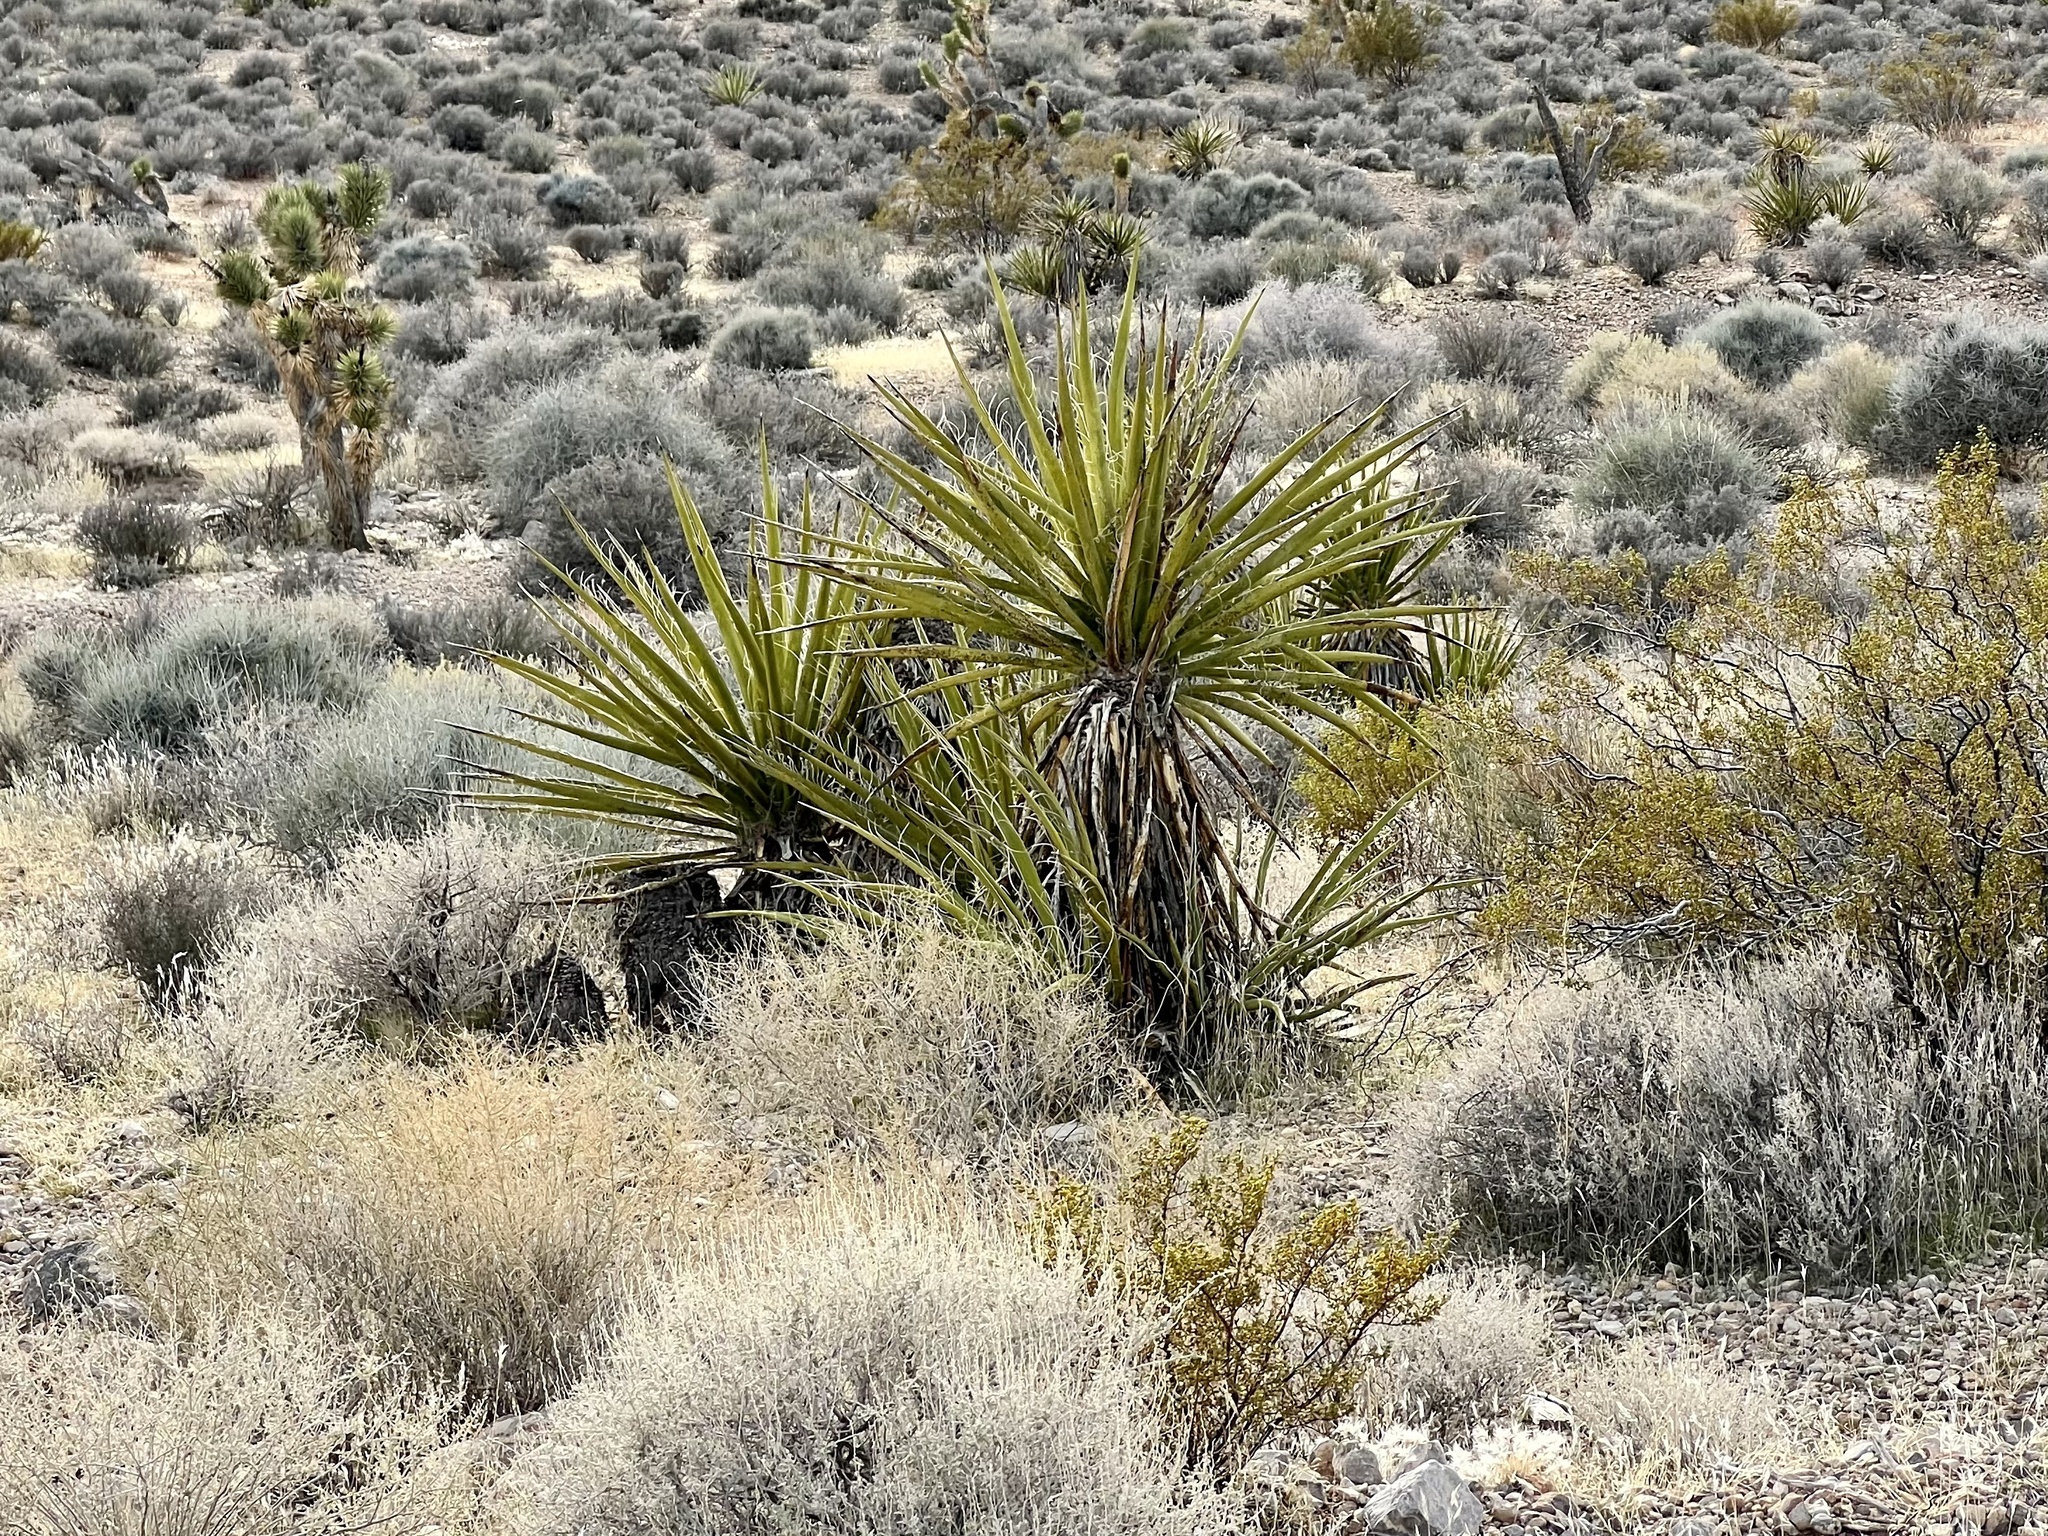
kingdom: Plantae
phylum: Tracheophyta
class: Liliopsida
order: Asparagales
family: Asparagaceae
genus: Yucca
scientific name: Yucca schidigera
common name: Mojave yucca
